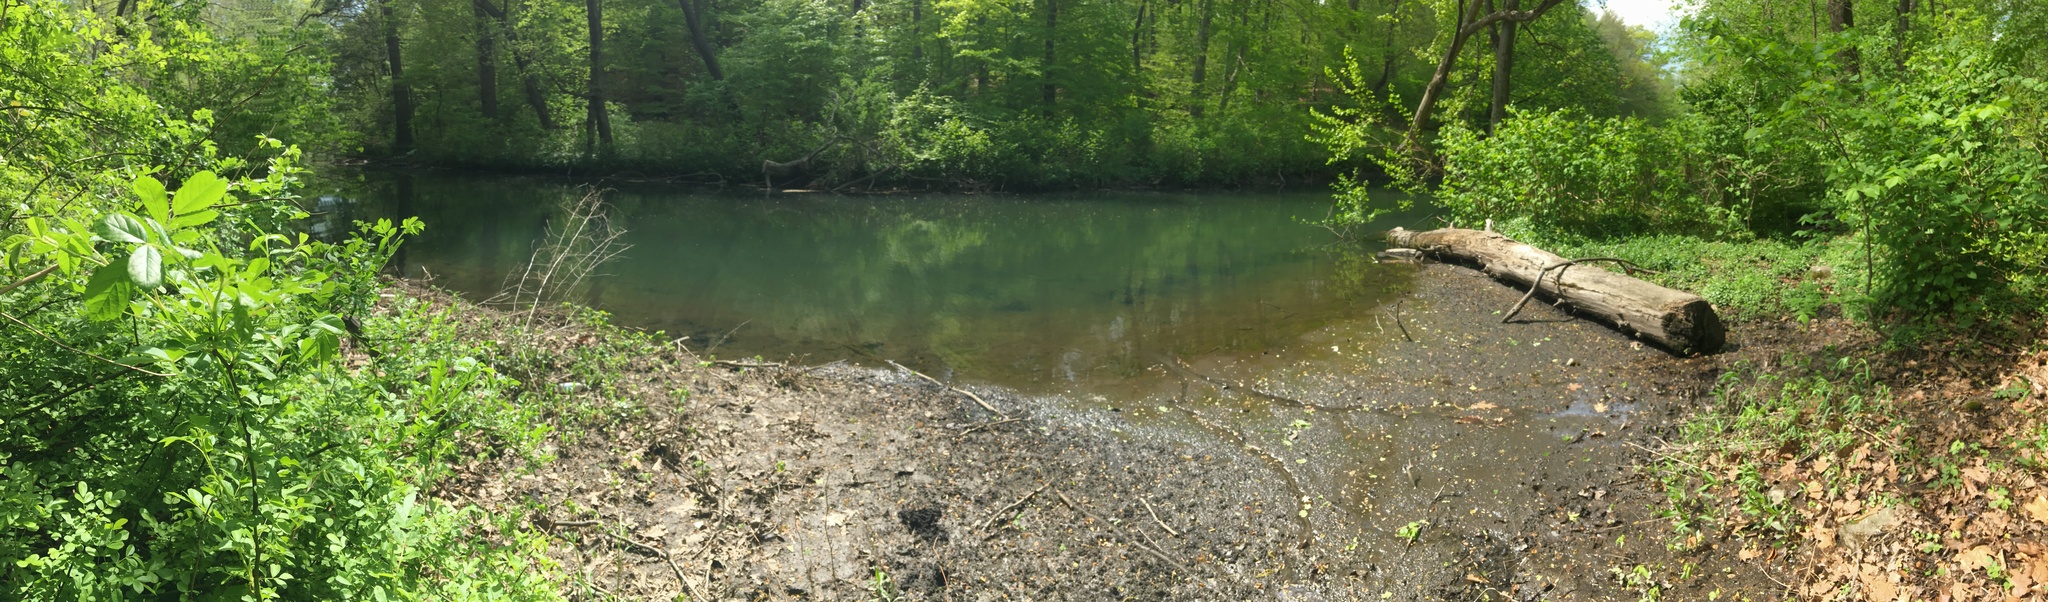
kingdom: Plantae
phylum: Tracheophyta
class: Magnoliopsida
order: Asterales
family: Asteraceae
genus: Artemisia
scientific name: Artemisia vulgaris
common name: Mugwort
